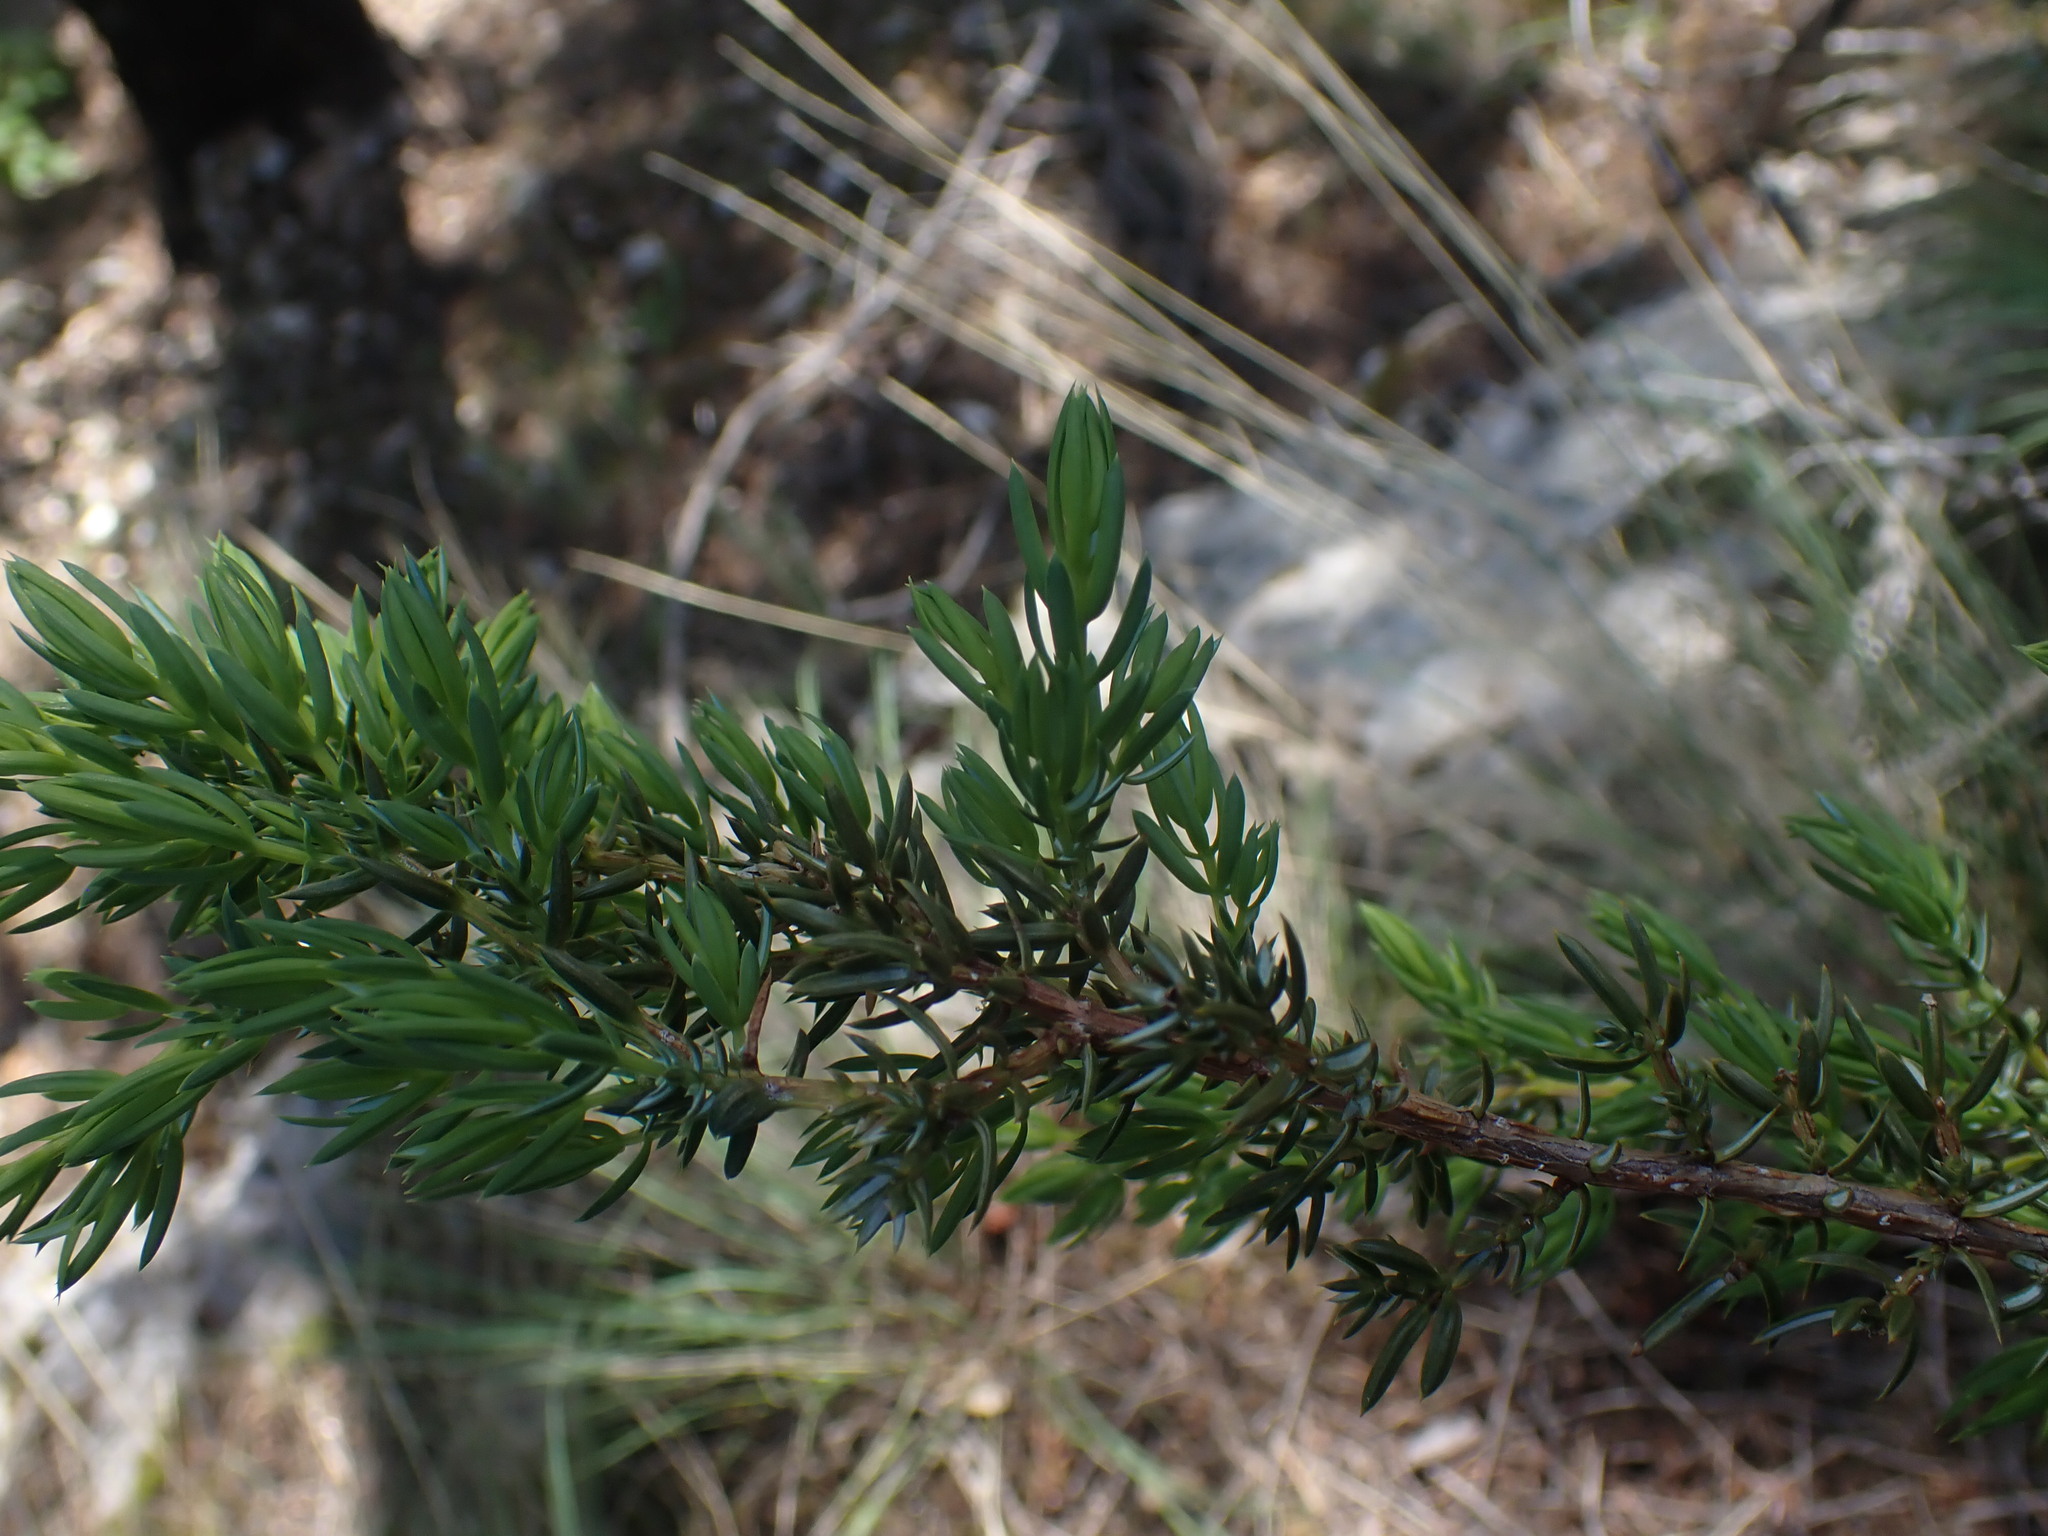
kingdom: Plantae
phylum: Tracheophyta
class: Pinopsida
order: Pinales
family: Cupressaceae
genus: Juniperus
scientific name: Juniperus communis
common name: Common juniper
